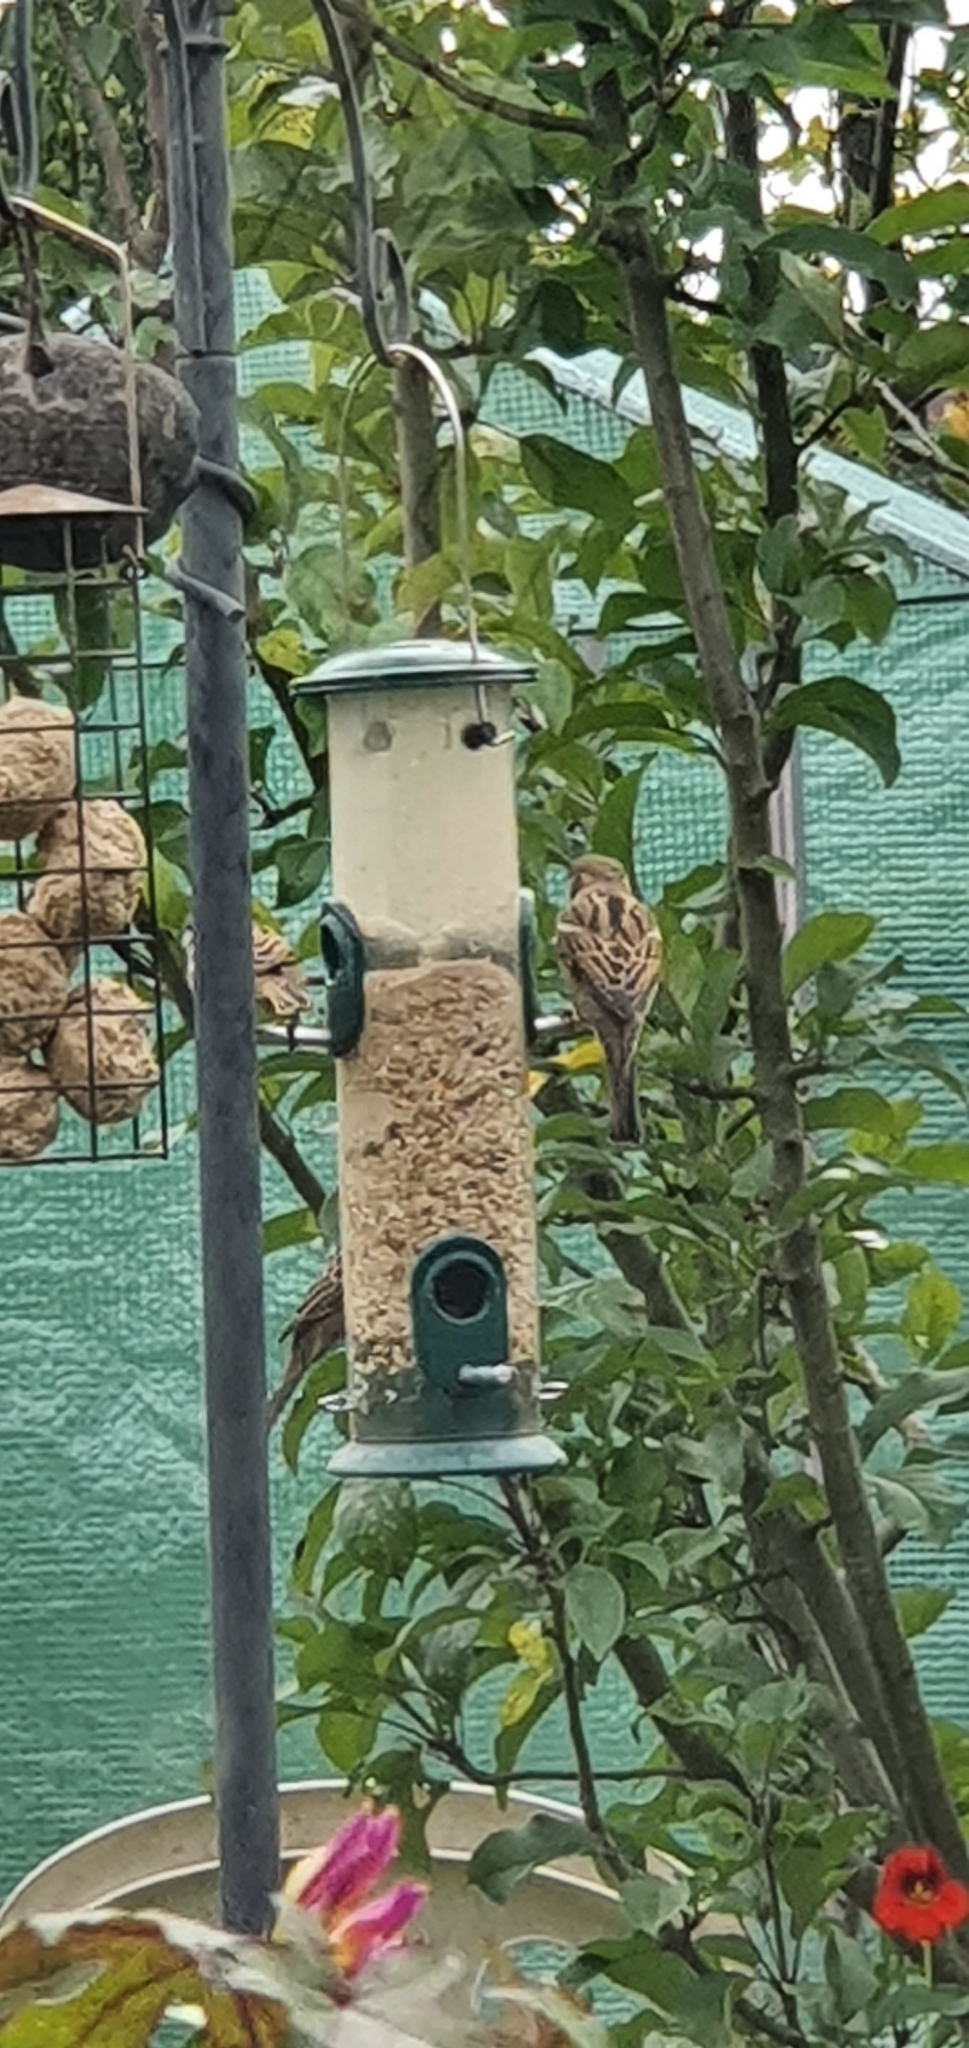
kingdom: Animalia
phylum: Chordata
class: Aves
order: Passeriformes
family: Passeridae
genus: Passer
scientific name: Passer domesticus
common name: House sparrow
